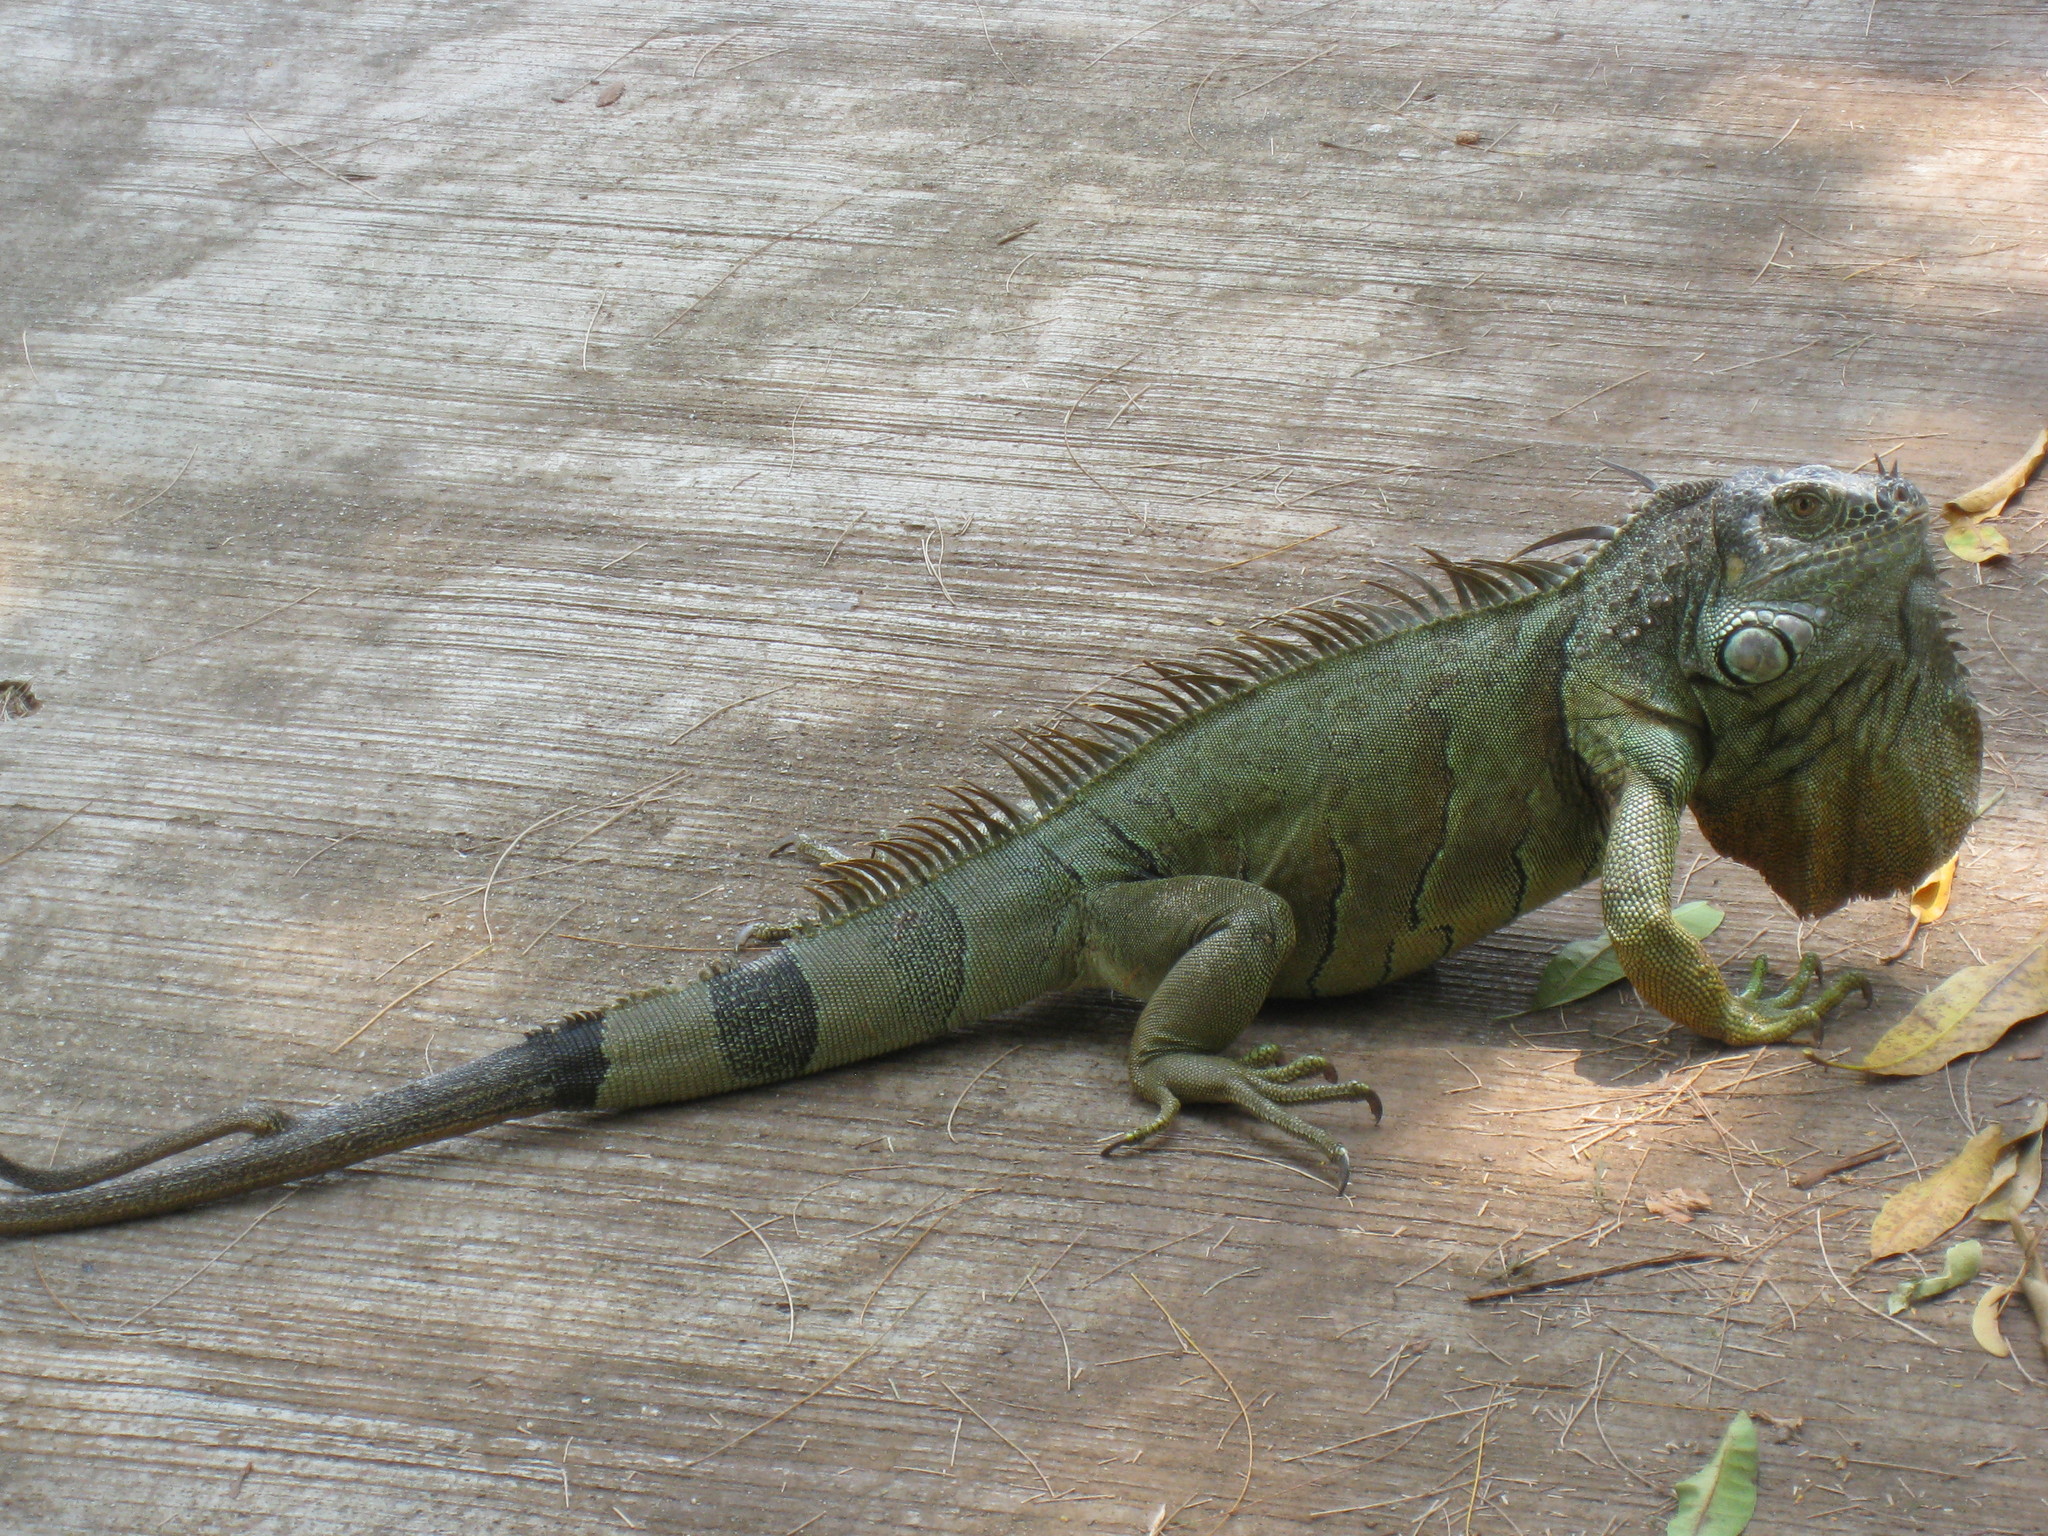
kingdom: Animalia
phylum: Chordata
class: Squamata
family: Iguanidae
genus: Iguana
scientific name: Iguana iguana
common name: Green iguana
